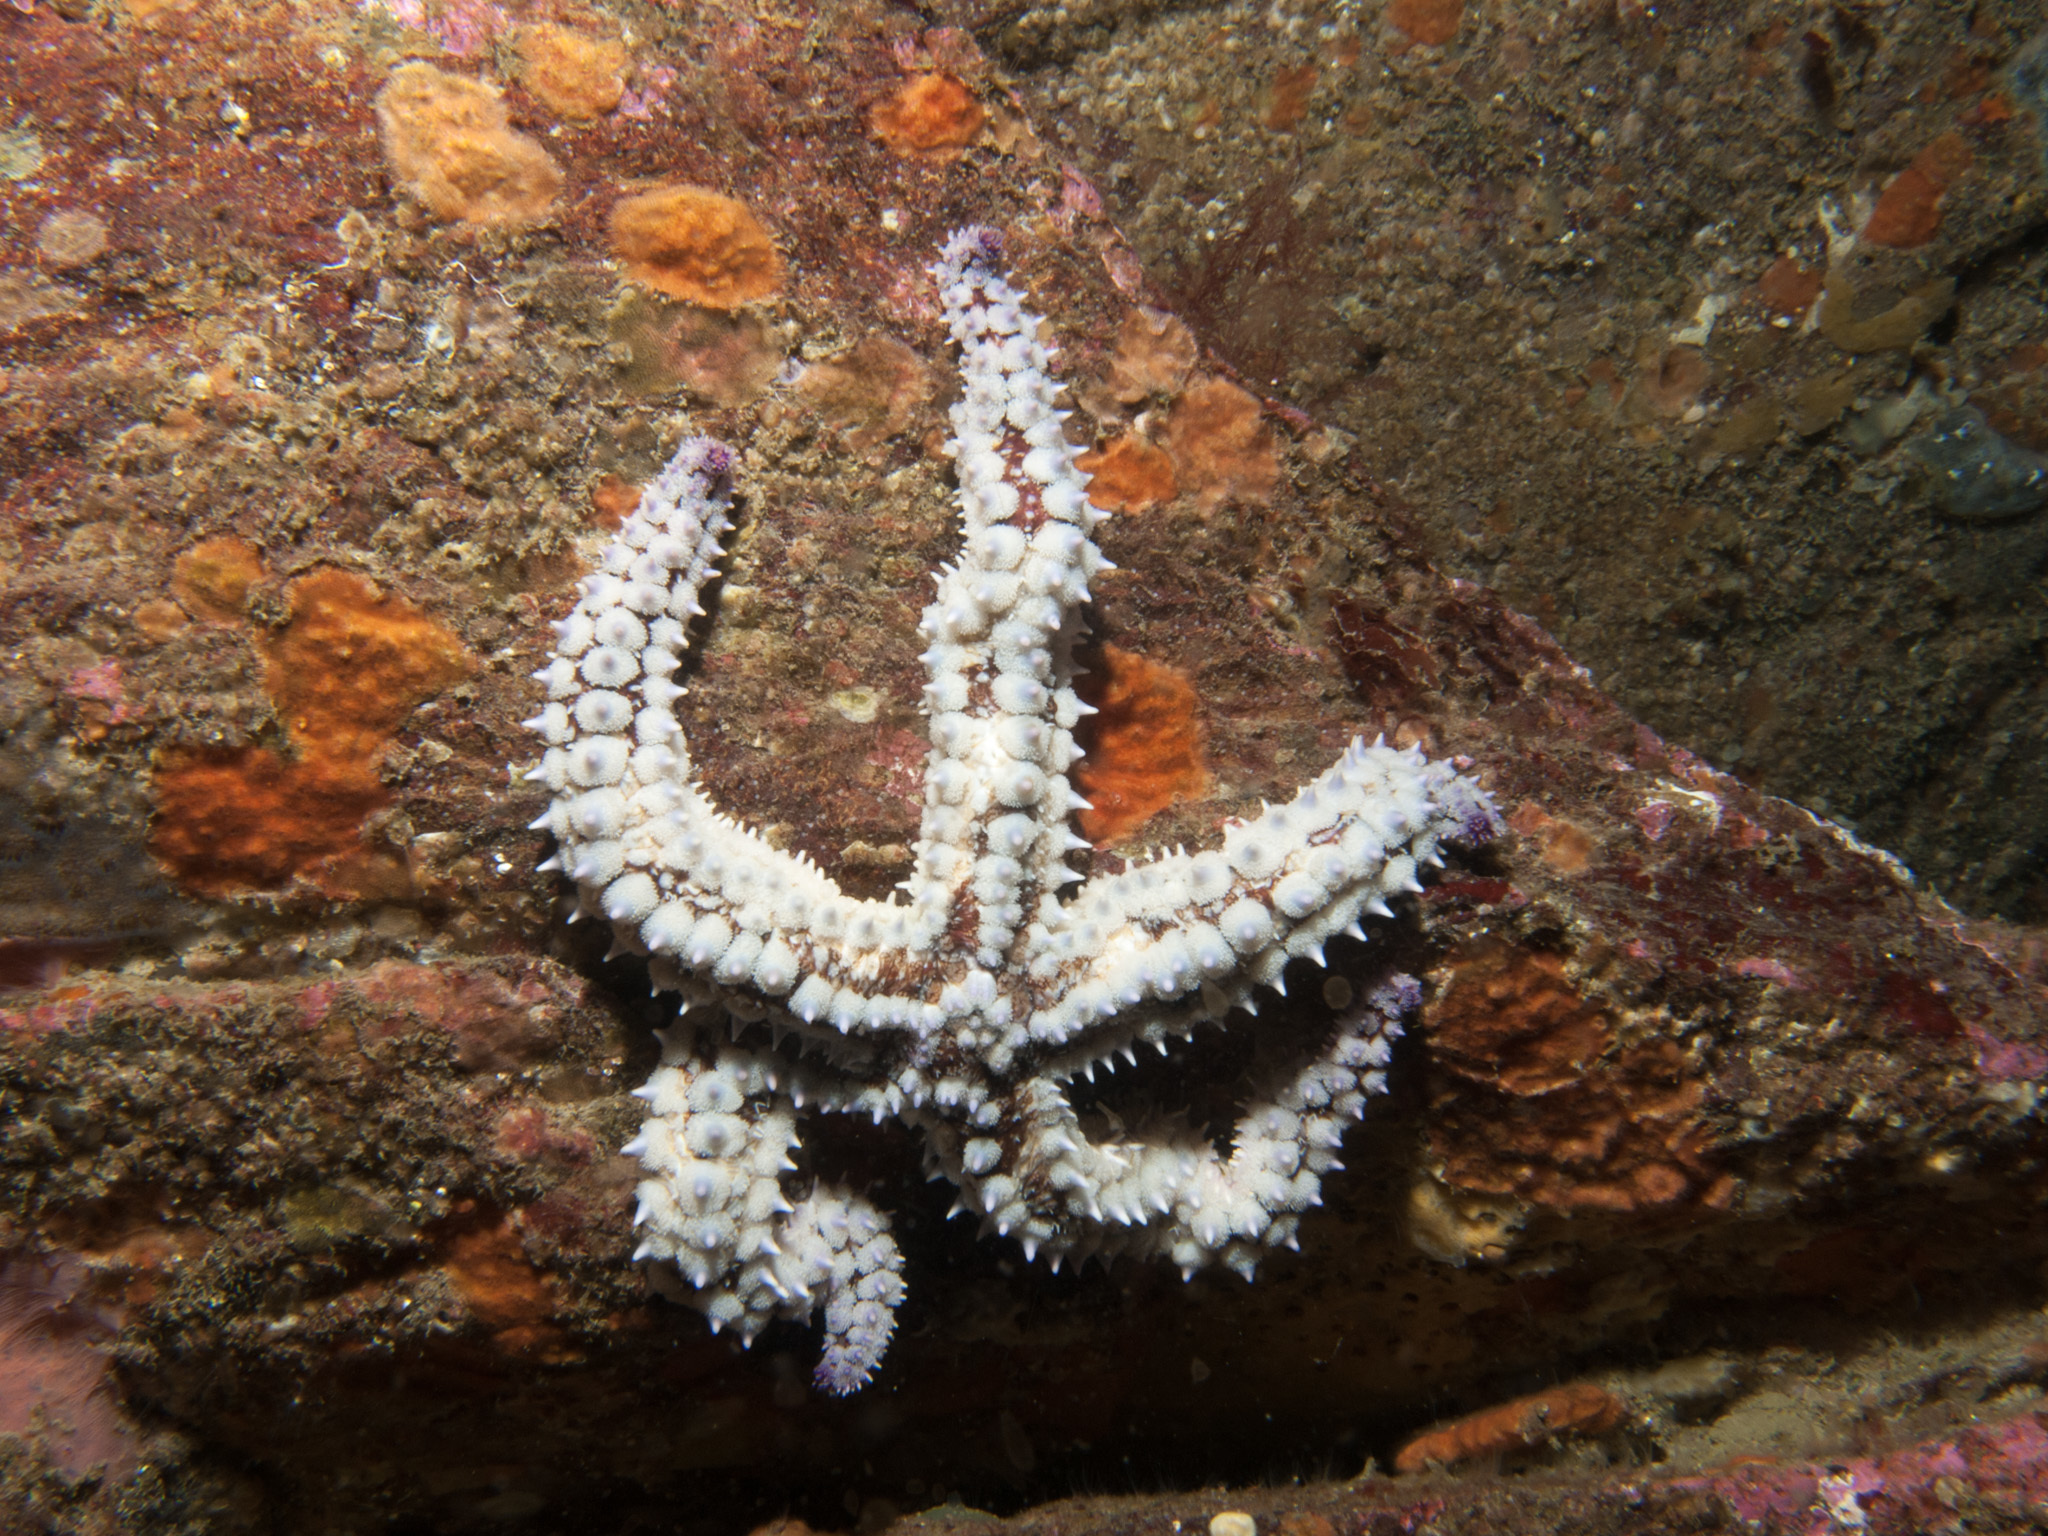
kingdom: Animalia
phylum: Echinodermata
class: Asteroidea
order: Forcipulatida
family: Asteriidae
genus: Marthasterias
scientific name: Marthasterias glacialis
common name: Spiny starfish
